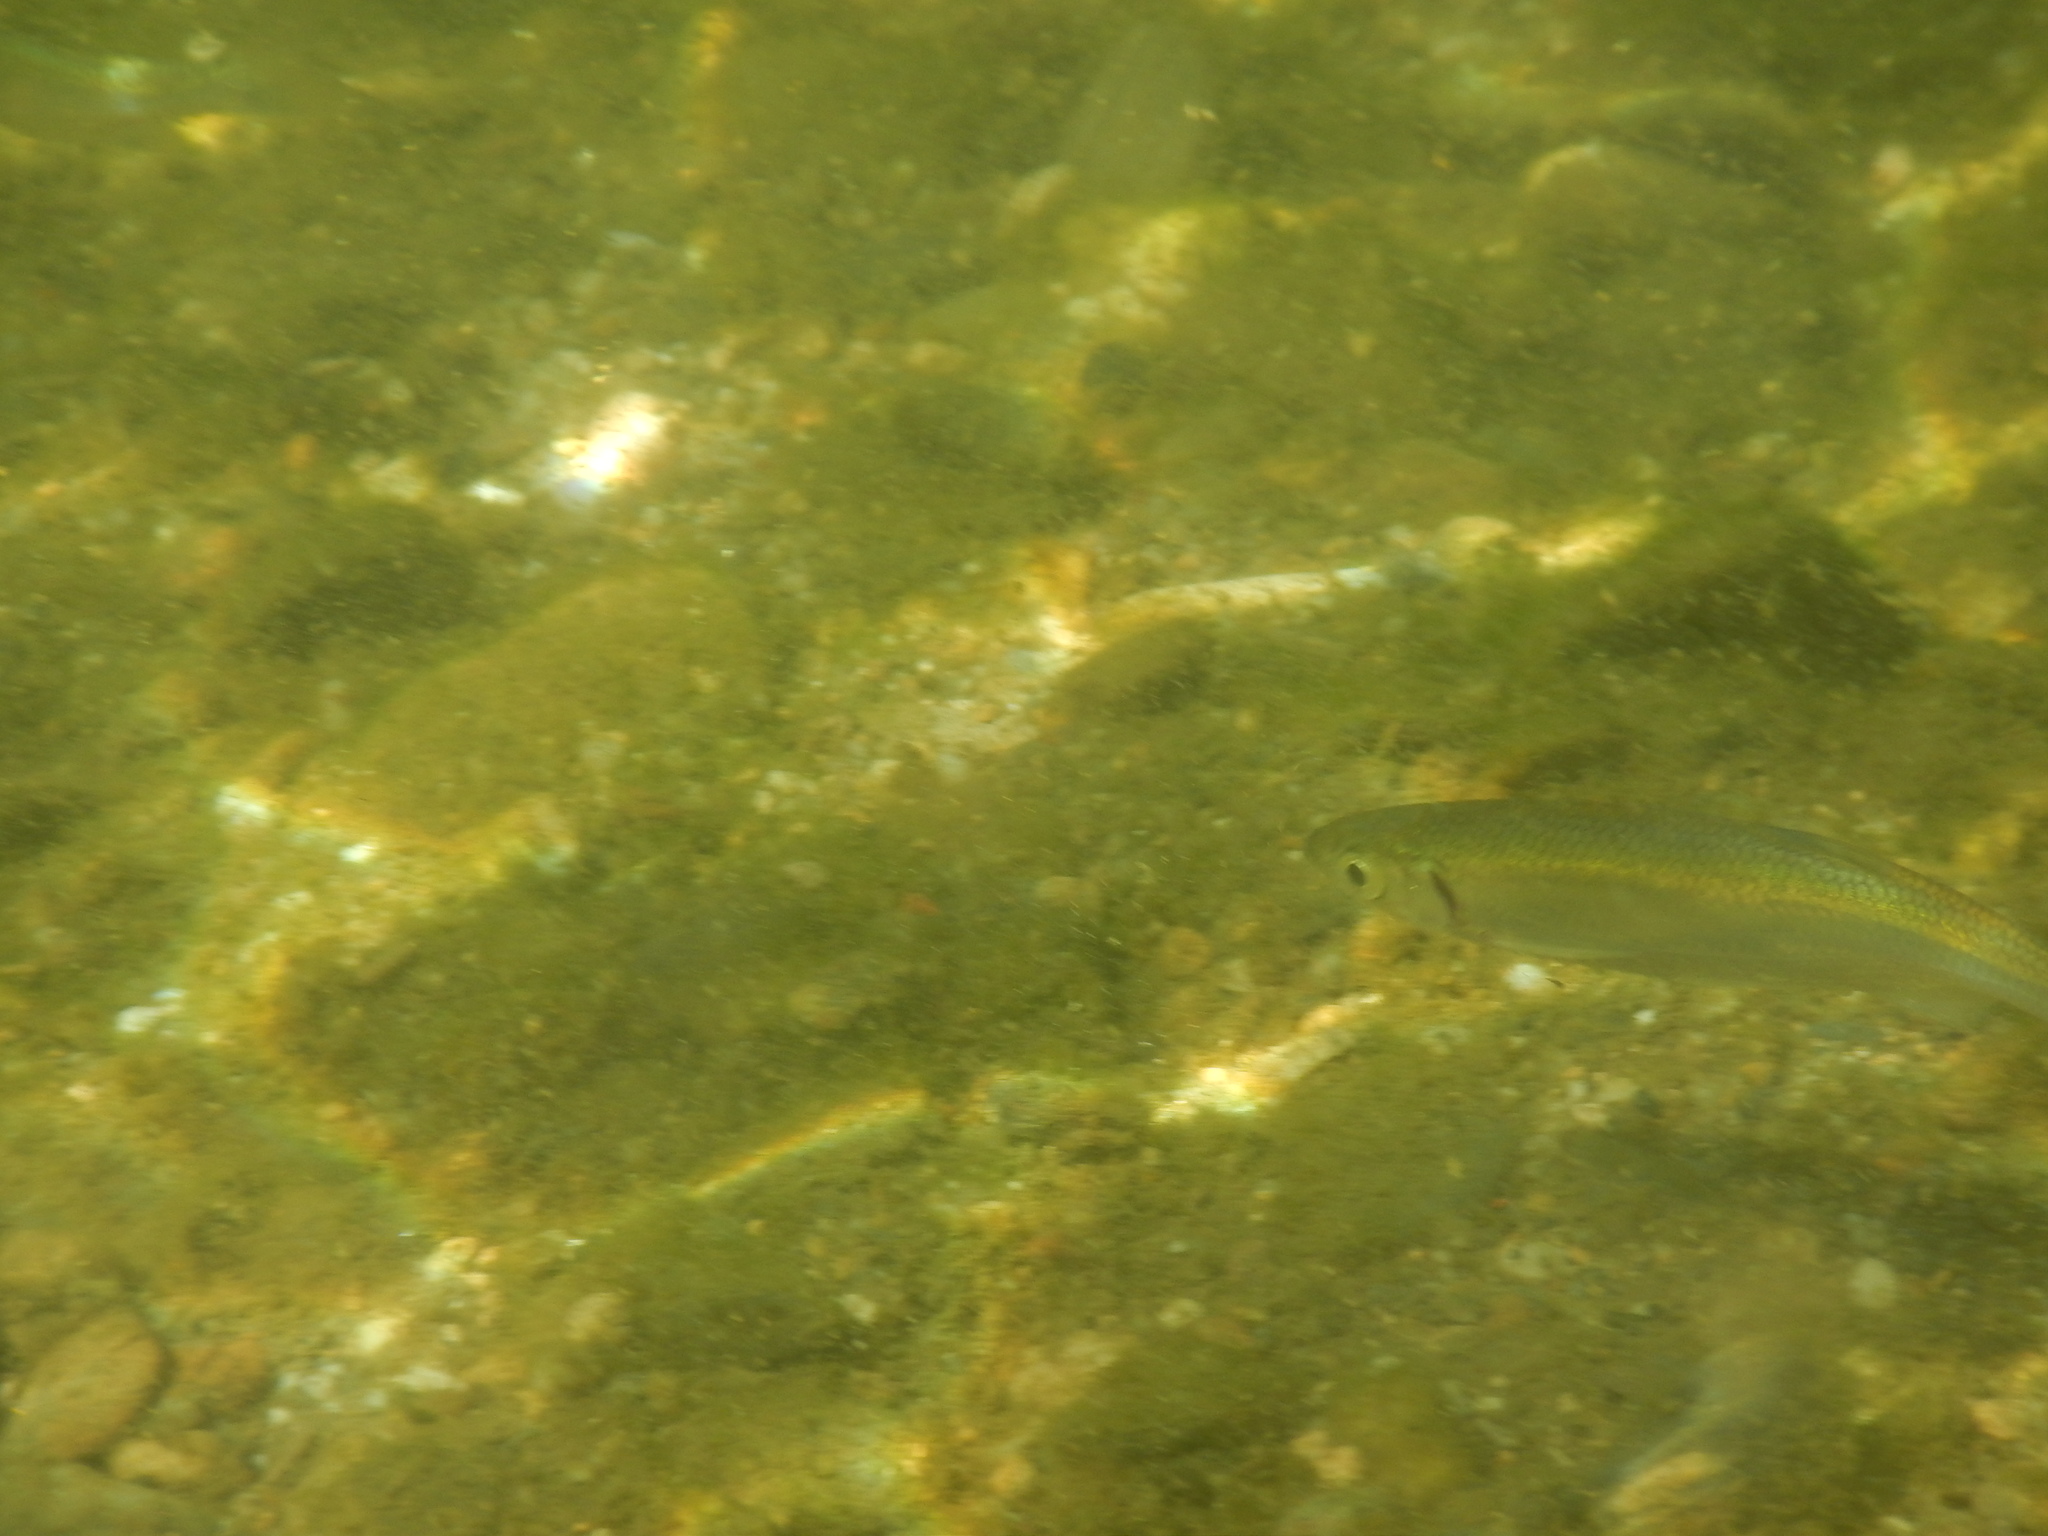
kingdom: Animalia
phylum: Chordata
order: Cypriniformes
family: Cyprinidae
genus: Alburnus
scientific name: Alburnus alburnus
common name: Bleak
